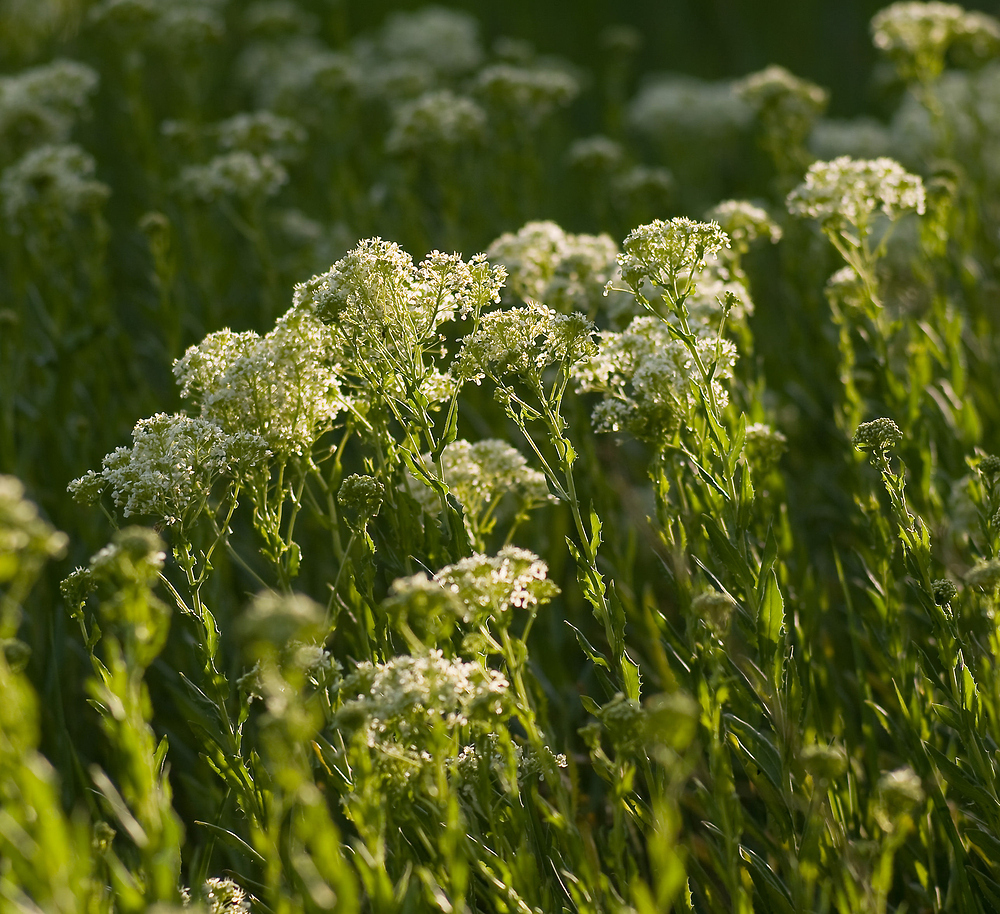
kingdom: Plantae
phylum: Tracheophyta
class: Magnoliopsida
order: Brassicales
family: Brassicaceae
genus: Lepidium
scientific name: Lepidium draba
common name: Hoary cress
